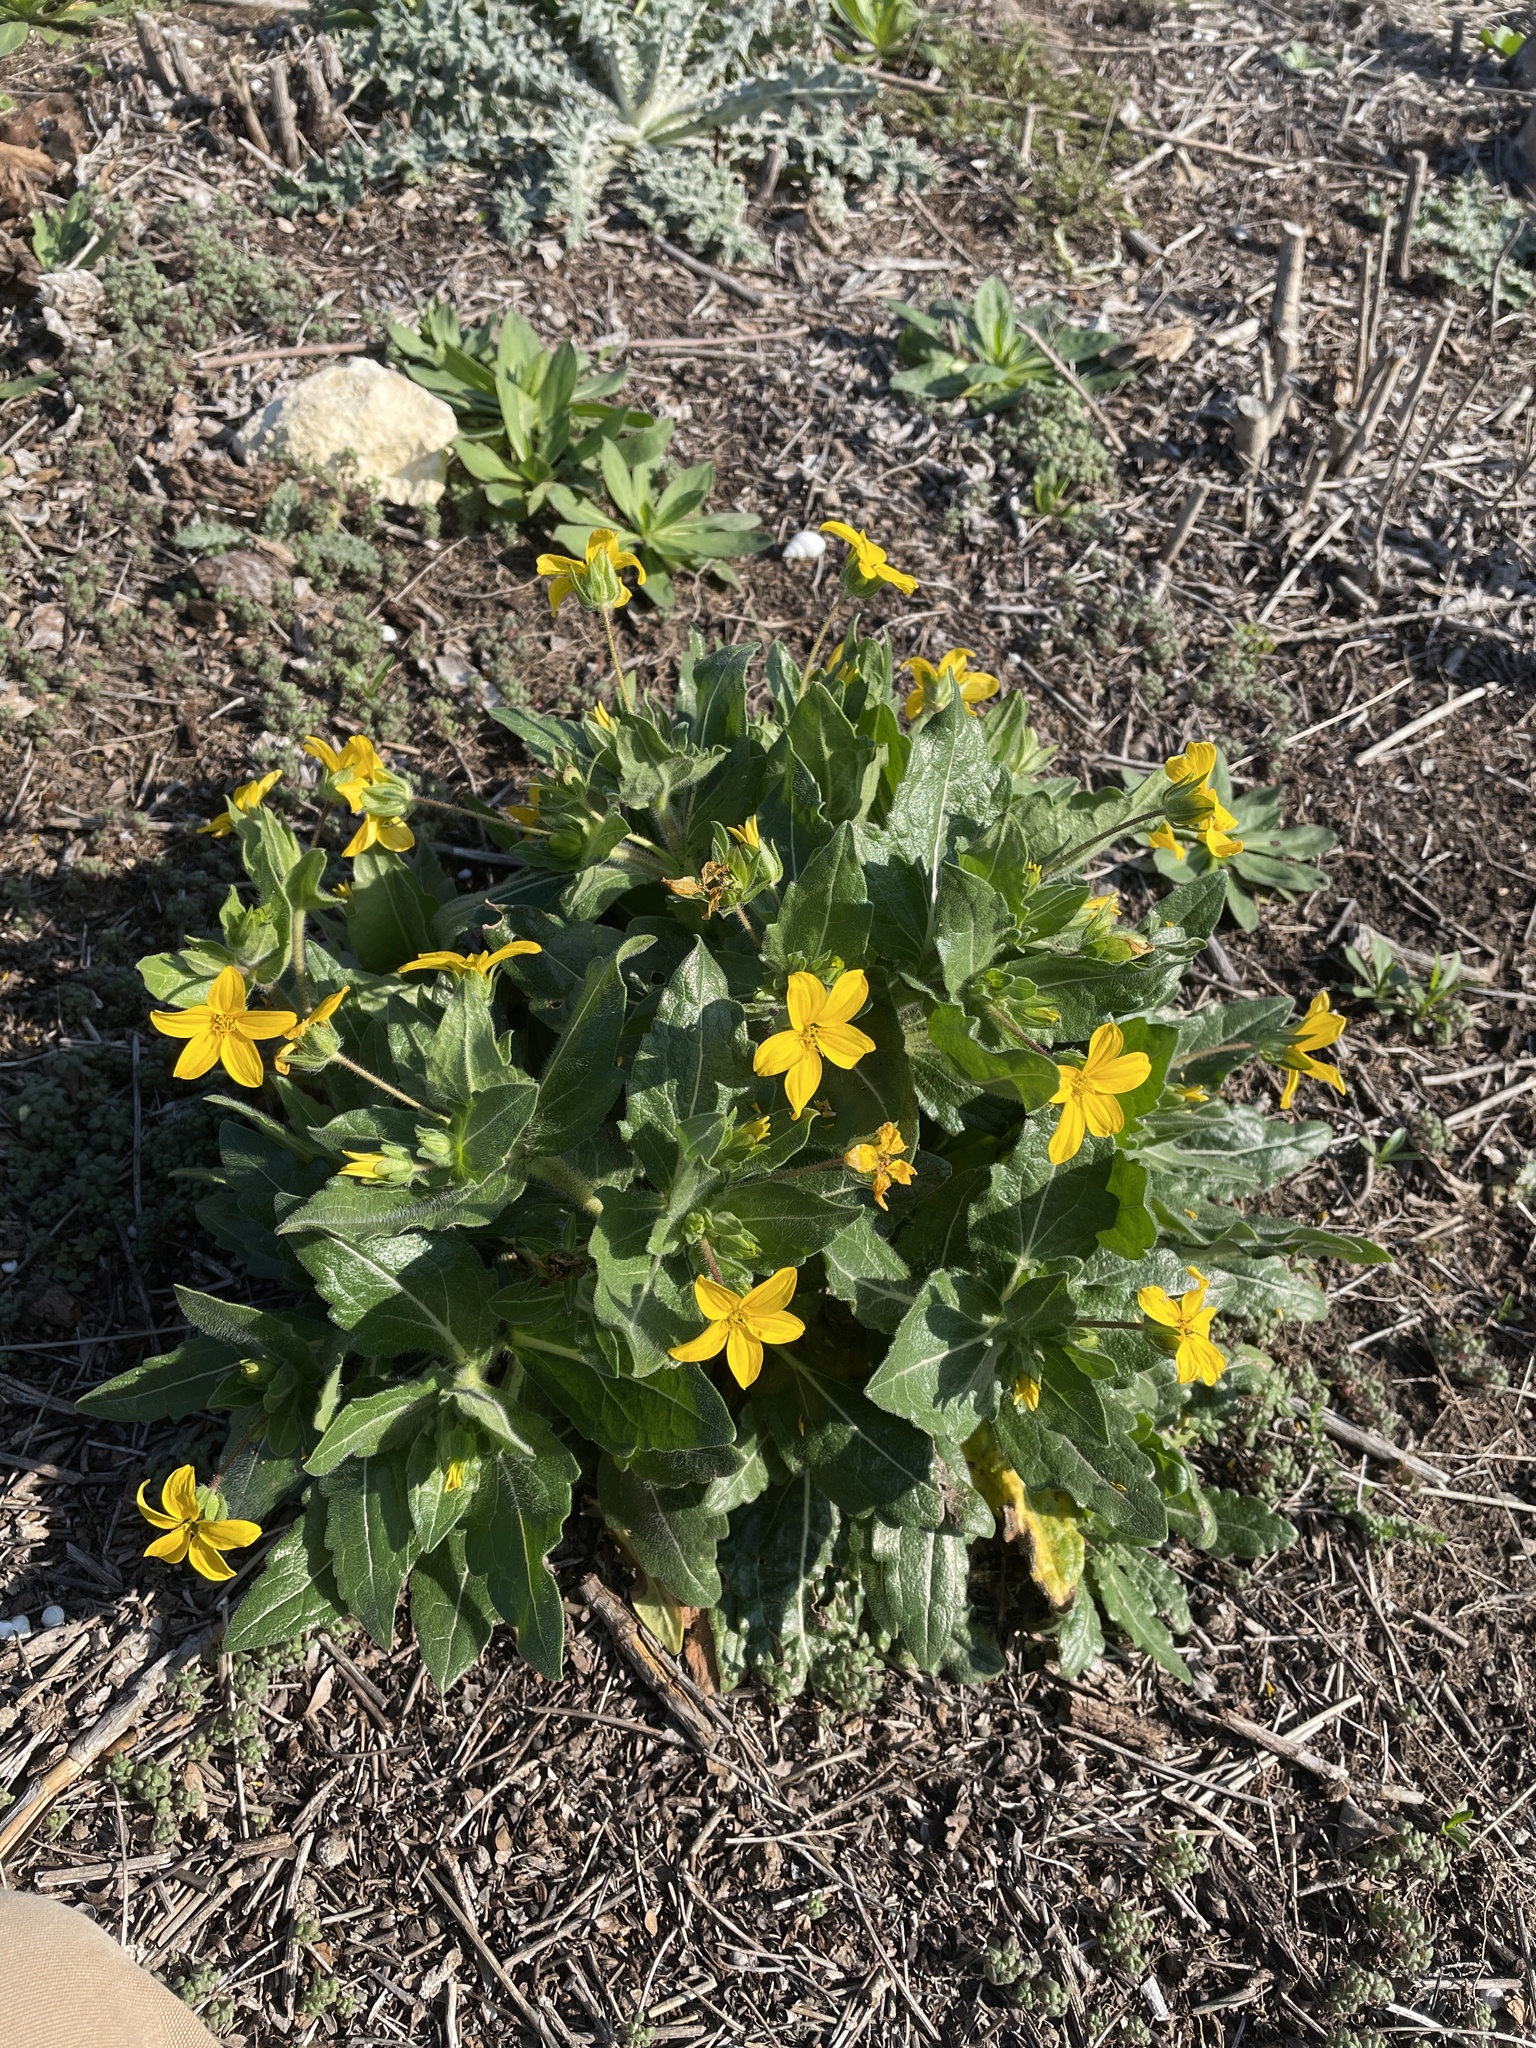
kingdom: Plantae
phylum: Tracheophyta
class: Magnoliopsida
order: Asterales
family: Asteraceae
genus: Lindheimera
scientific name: Lindheimera texana
